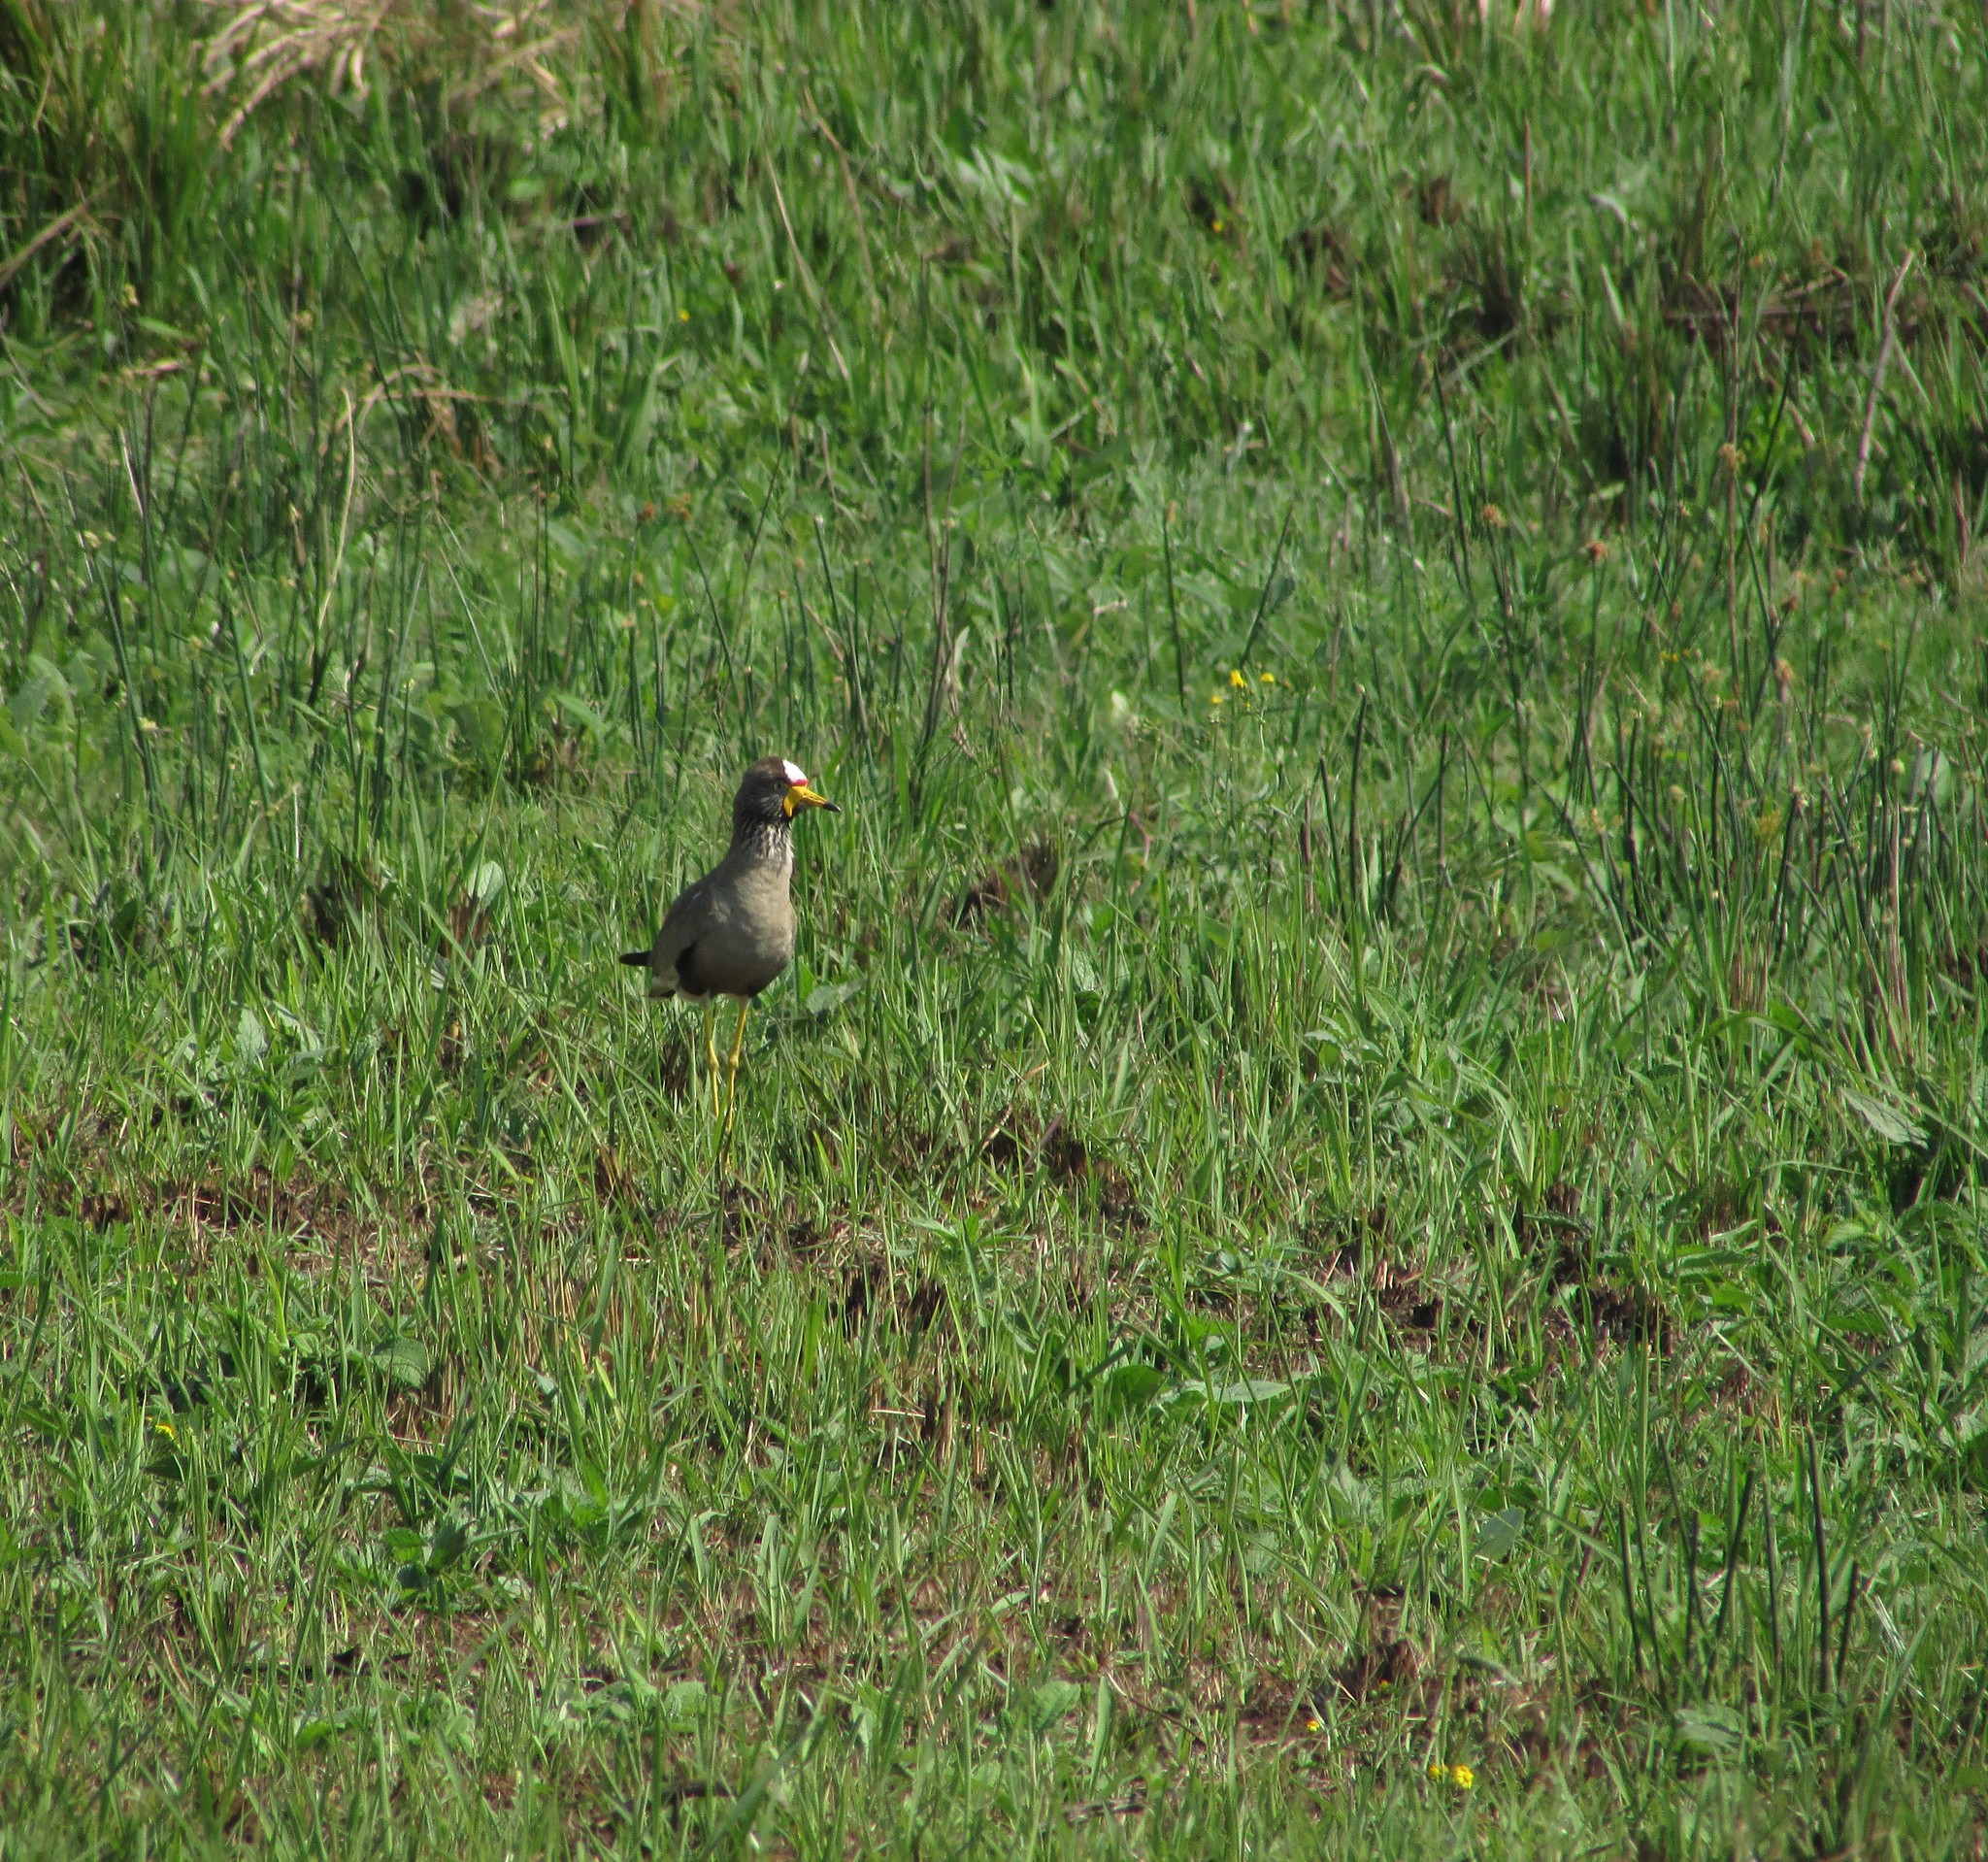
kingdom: Animalia
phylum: Chordata
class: Aves
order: Charadriiformes
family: Charadriidae
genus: Vanellus
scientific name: Vanellus senegallus
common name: African wattled lapwing
